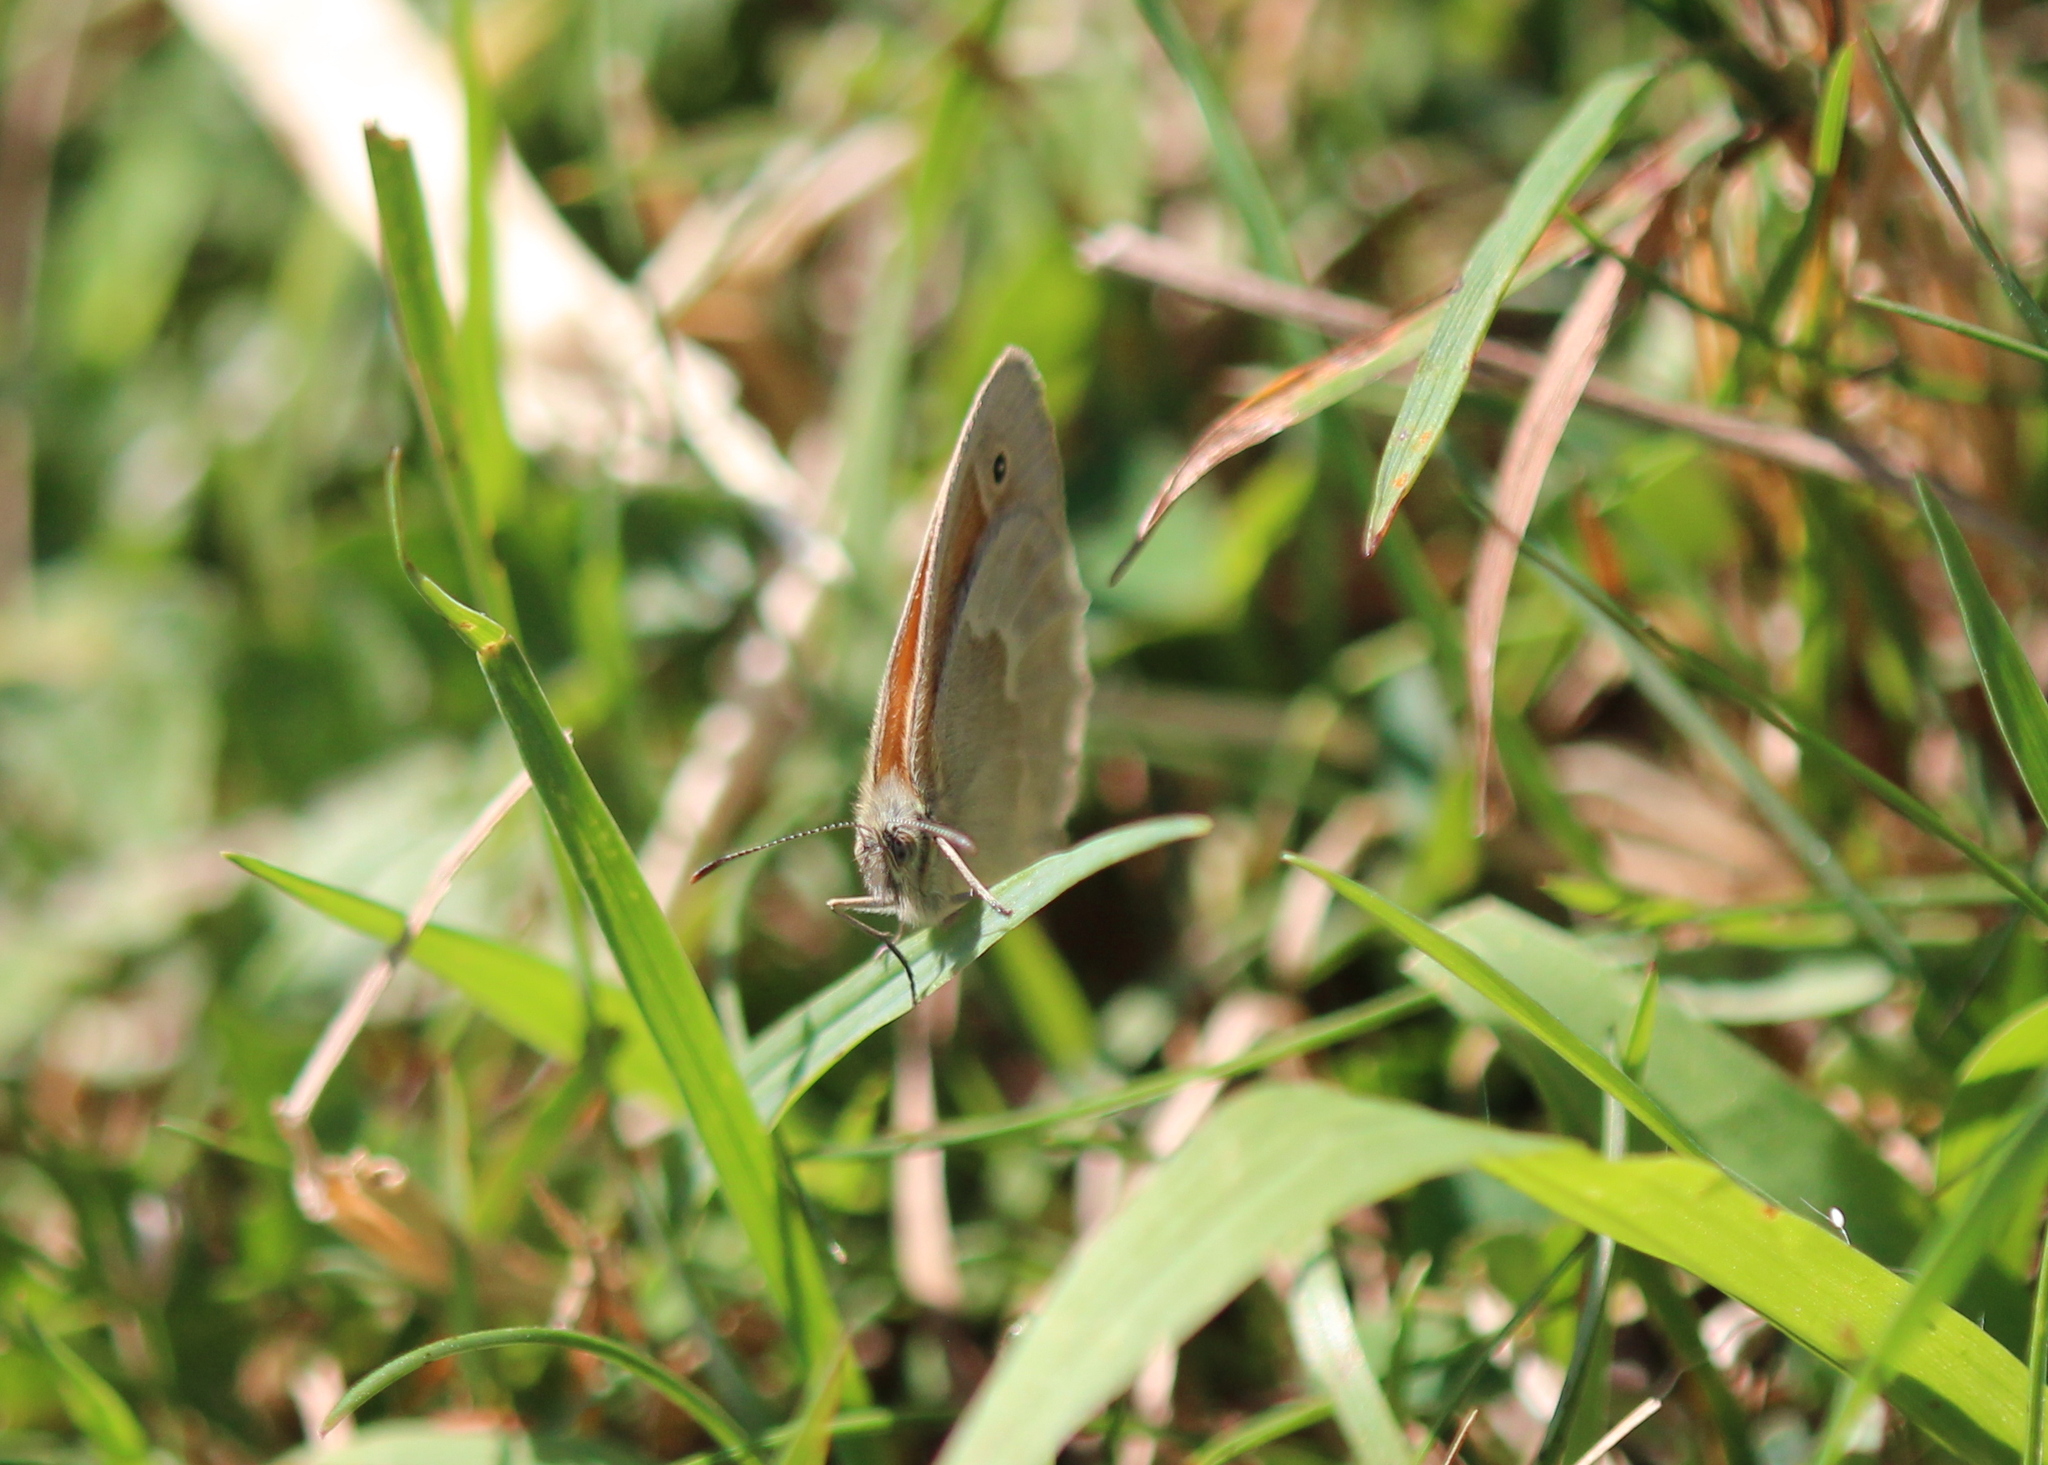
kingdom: Animalia
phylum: Arthropoda
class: Insecta
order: Lepidoptera
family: Nymphalidae
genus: Coenonympha
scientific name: Coenonympha california
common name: Common ringlet
